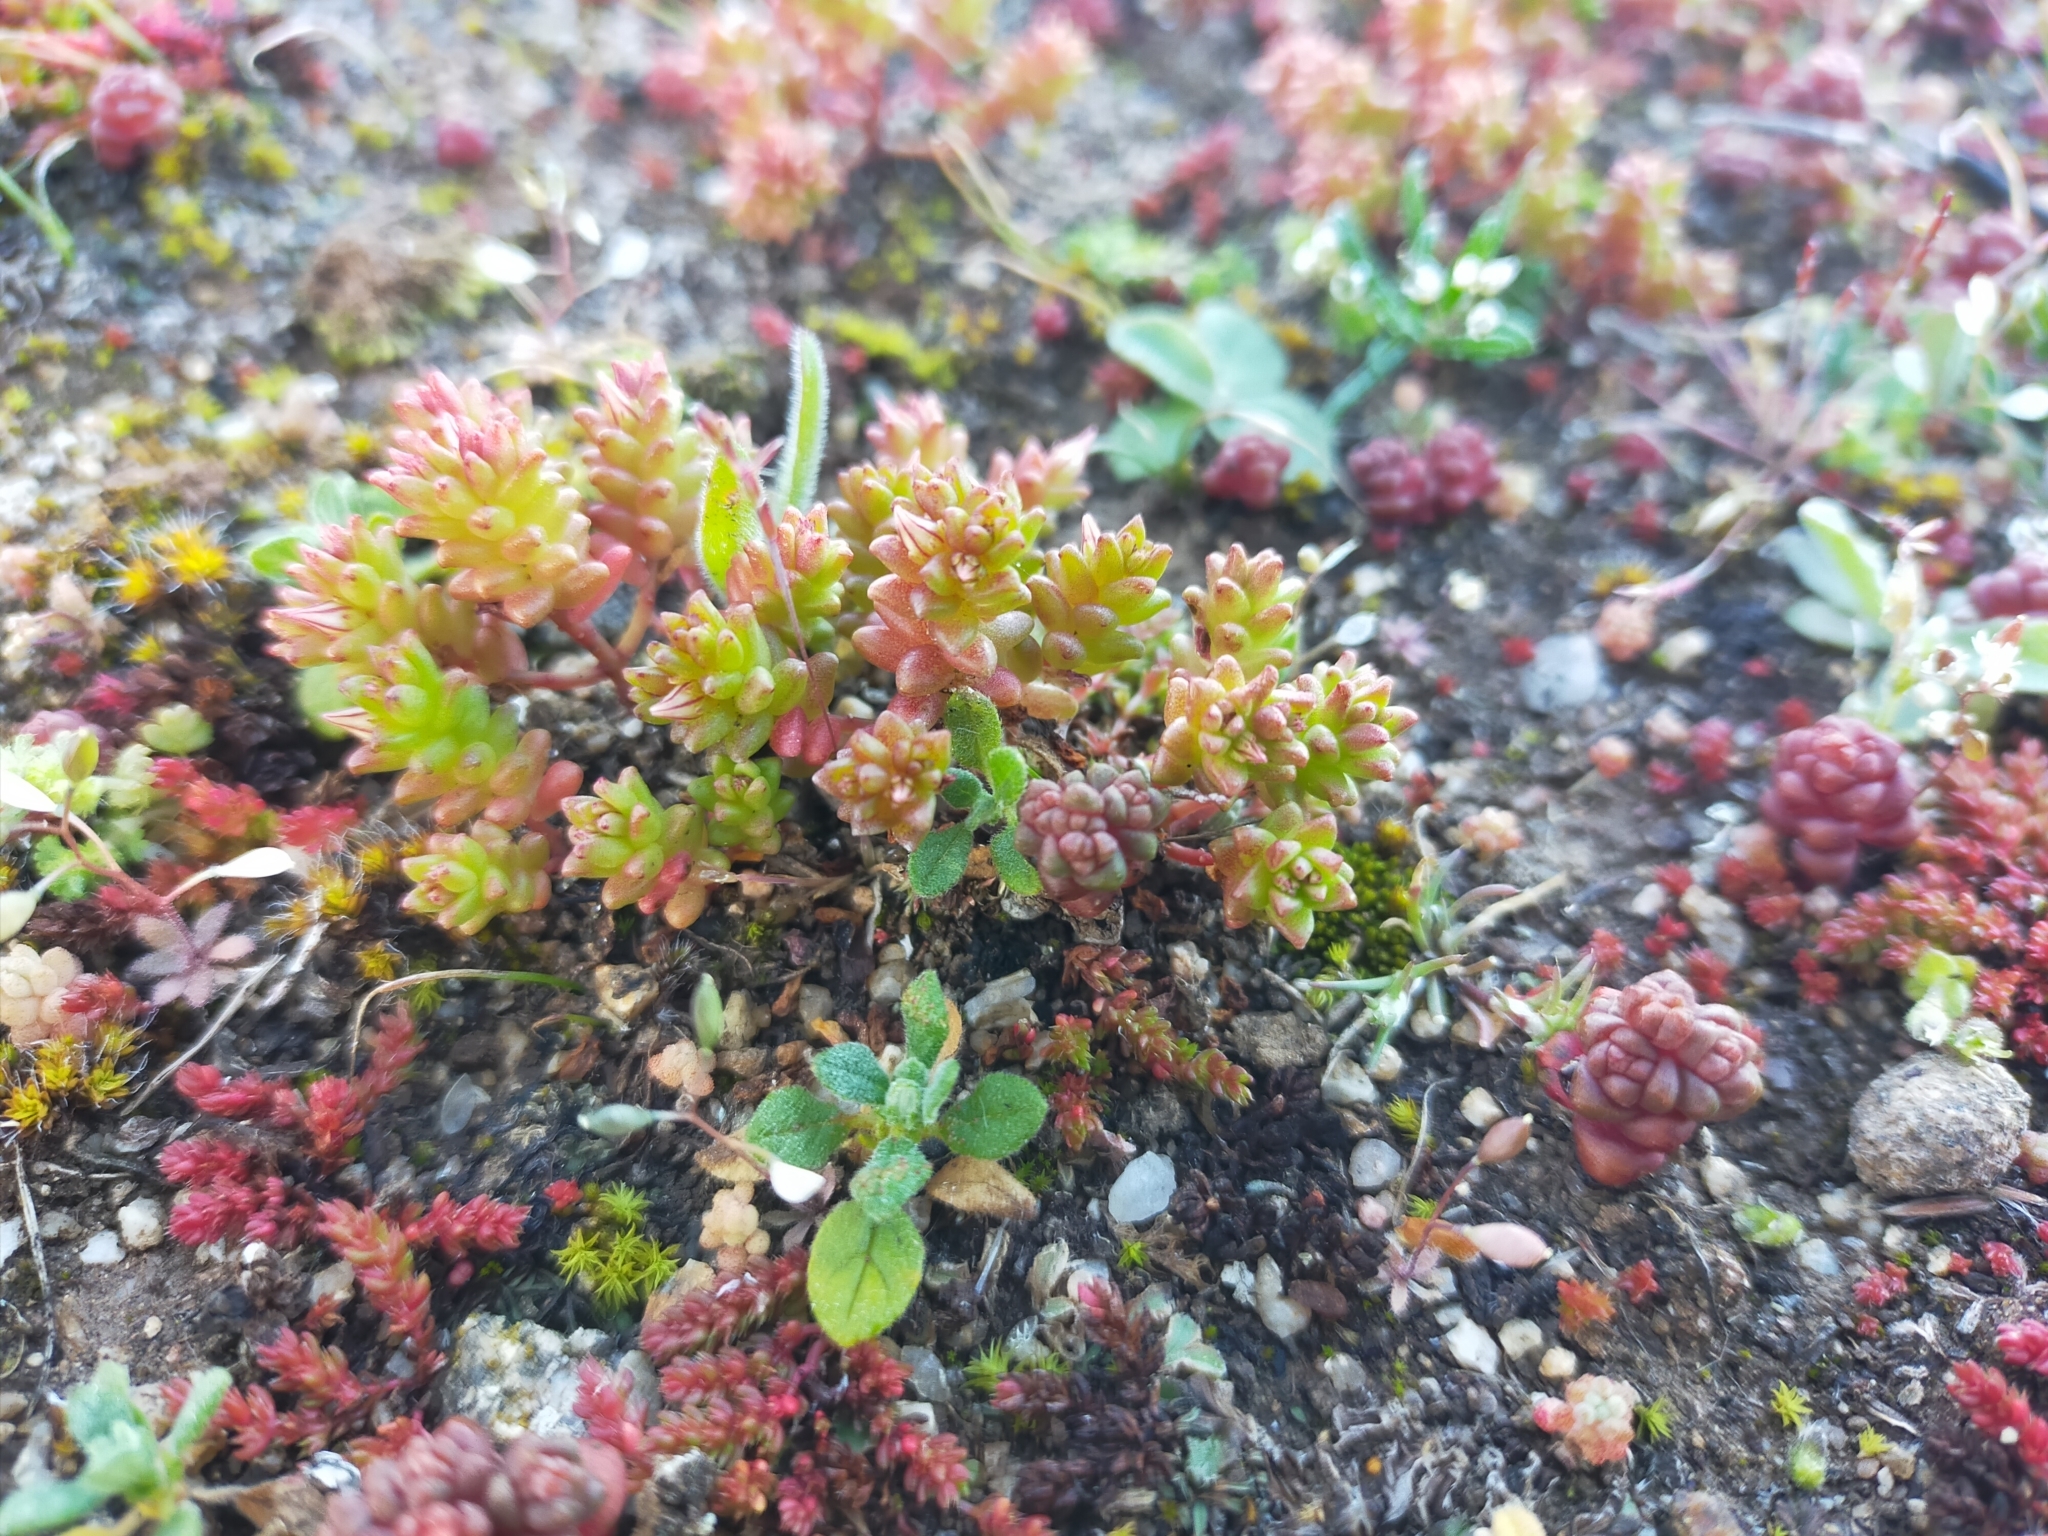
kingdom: Plantae
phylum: Tracheophyta
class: Magnoliopsida
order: Saxifragales
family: Crassulaceae
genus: Sedum
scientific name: Sedum cespitosum
